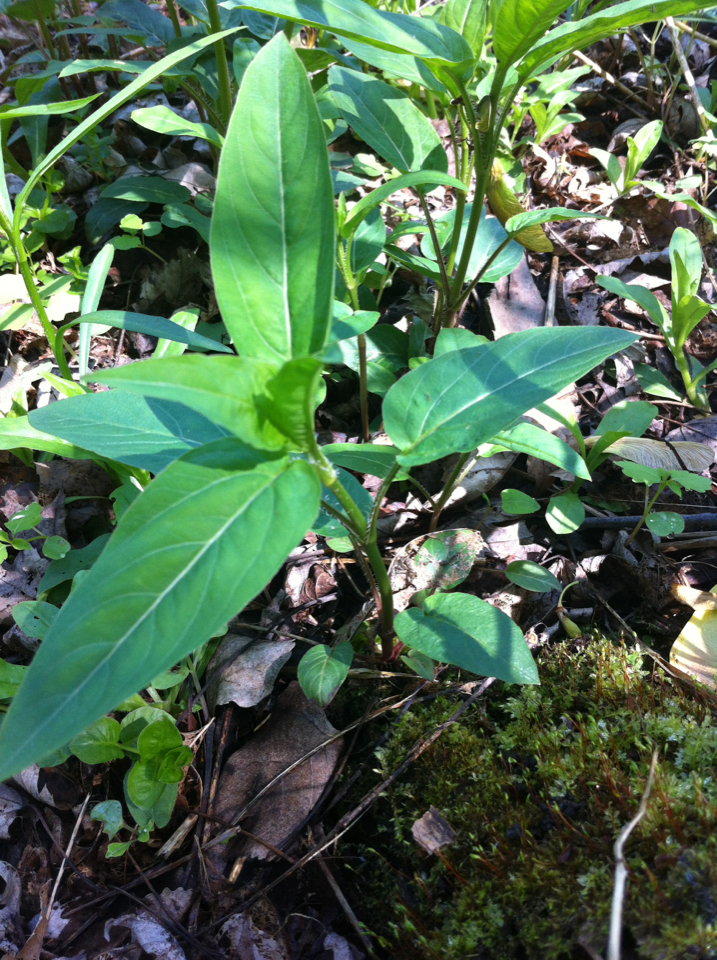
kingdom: Plantae
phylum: Tracheophyta
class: Magnoliopsida
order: Ericales
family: Primulaceae
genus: Lysimachia
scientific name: Lysimachia ciliata
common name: Fringed loosestrife
